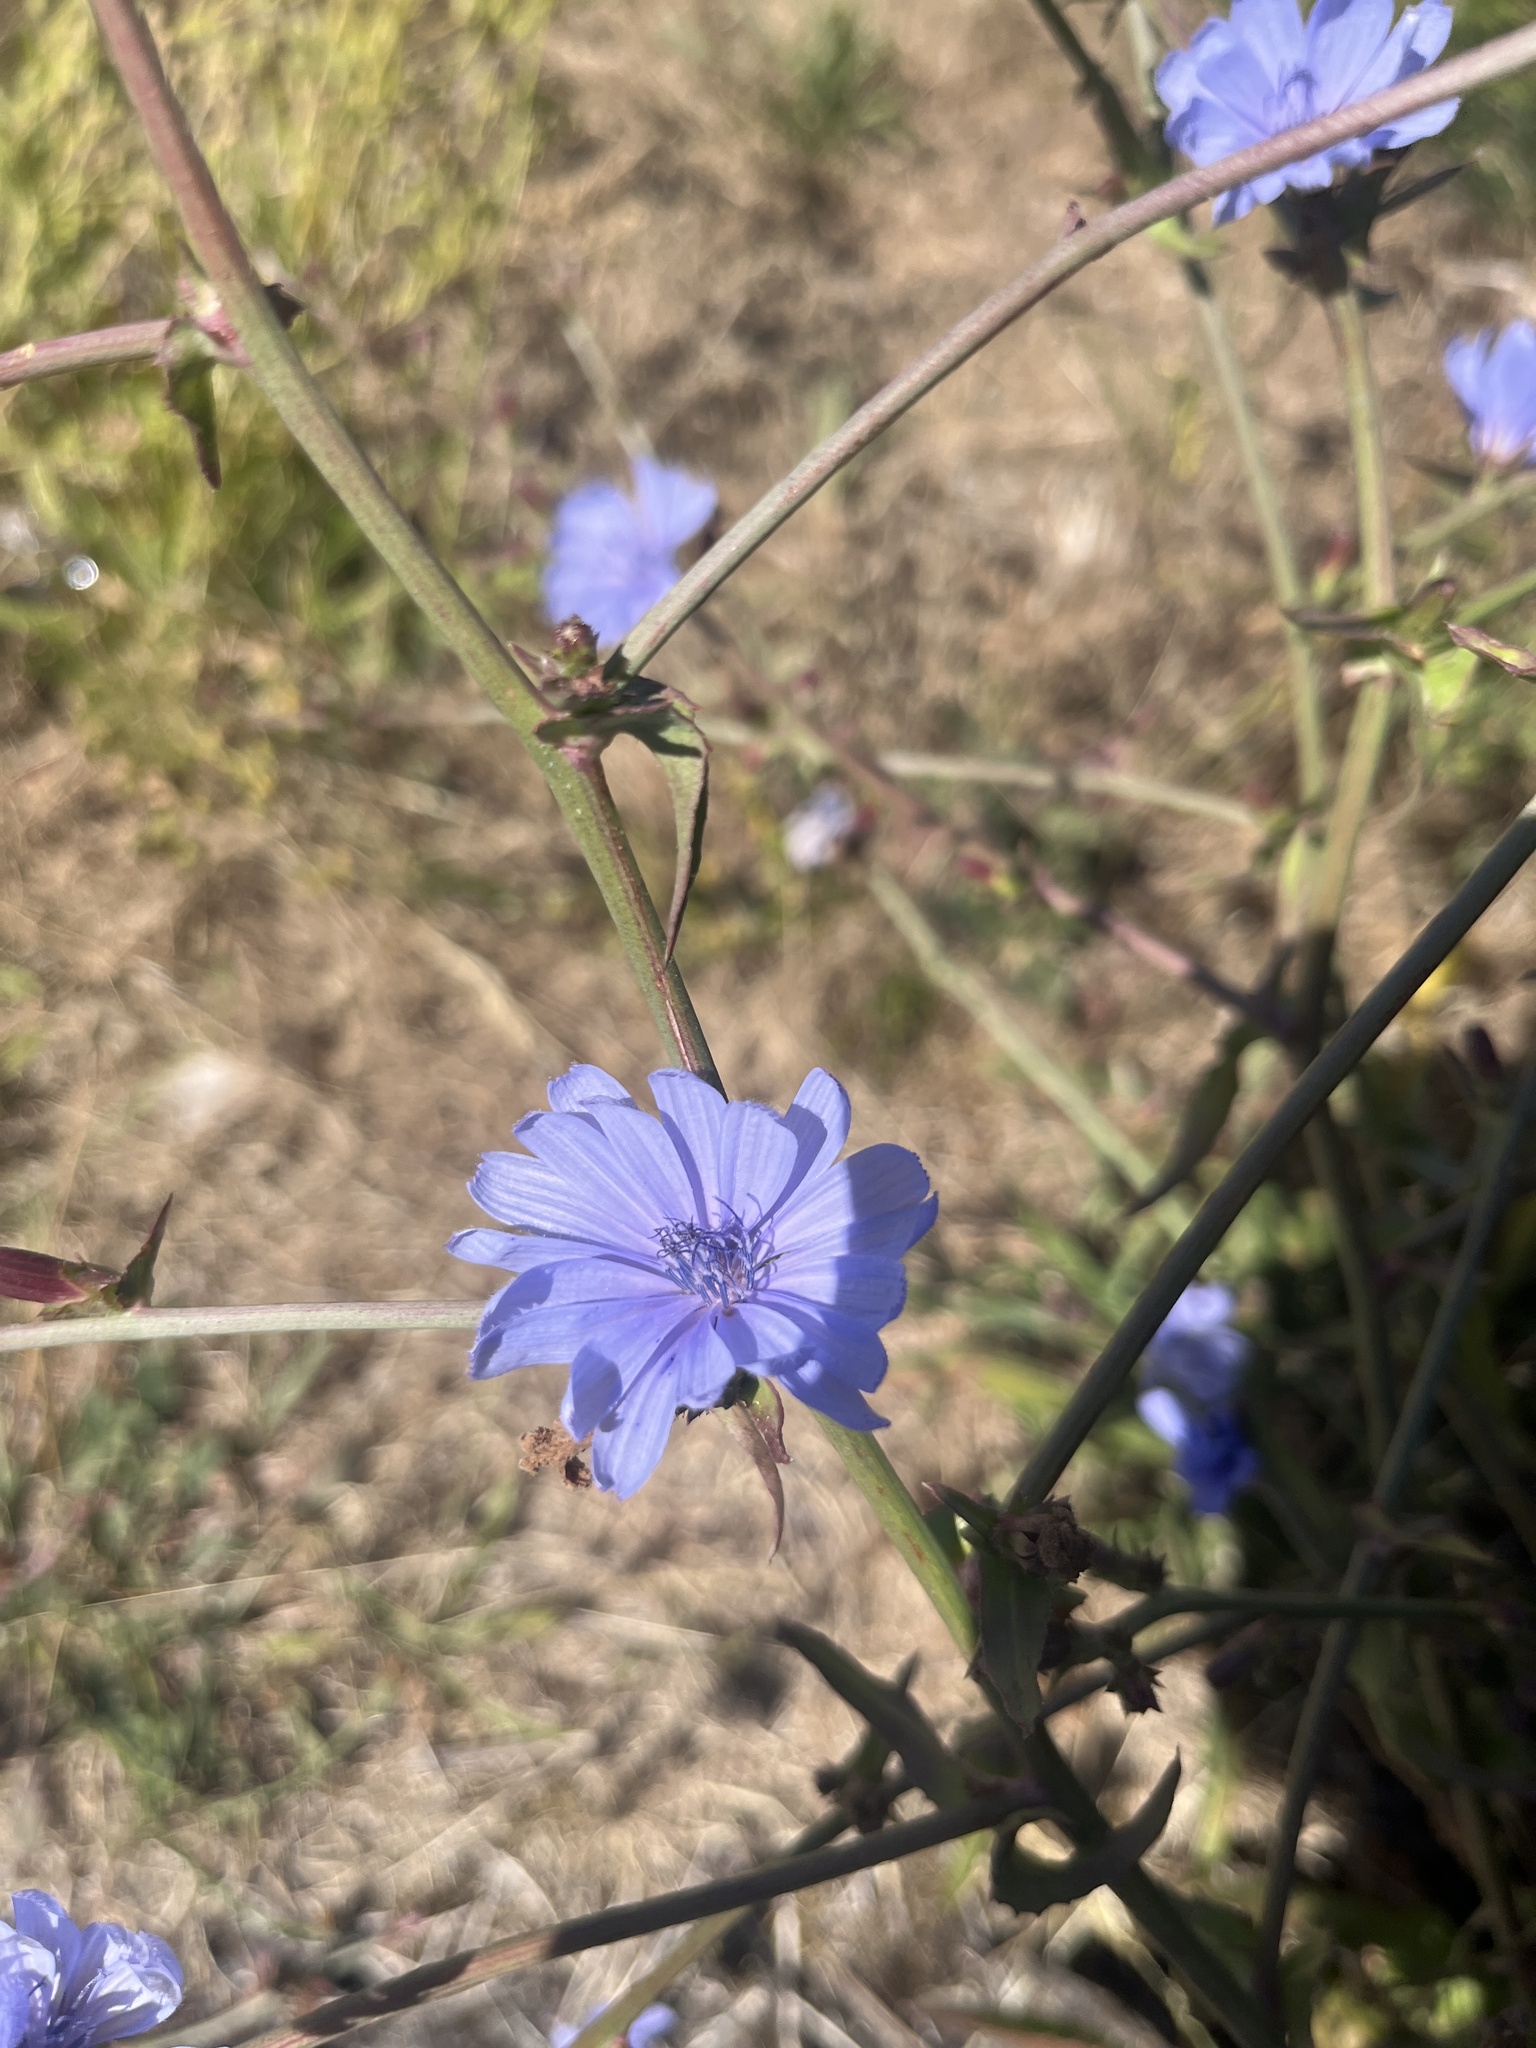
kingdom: Plantae
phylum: Tracheophyta
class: Magnoliopsida
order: Asterales
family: Asteraceae
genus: Cichorium
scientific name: Cichorium intybus
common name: Chicory
